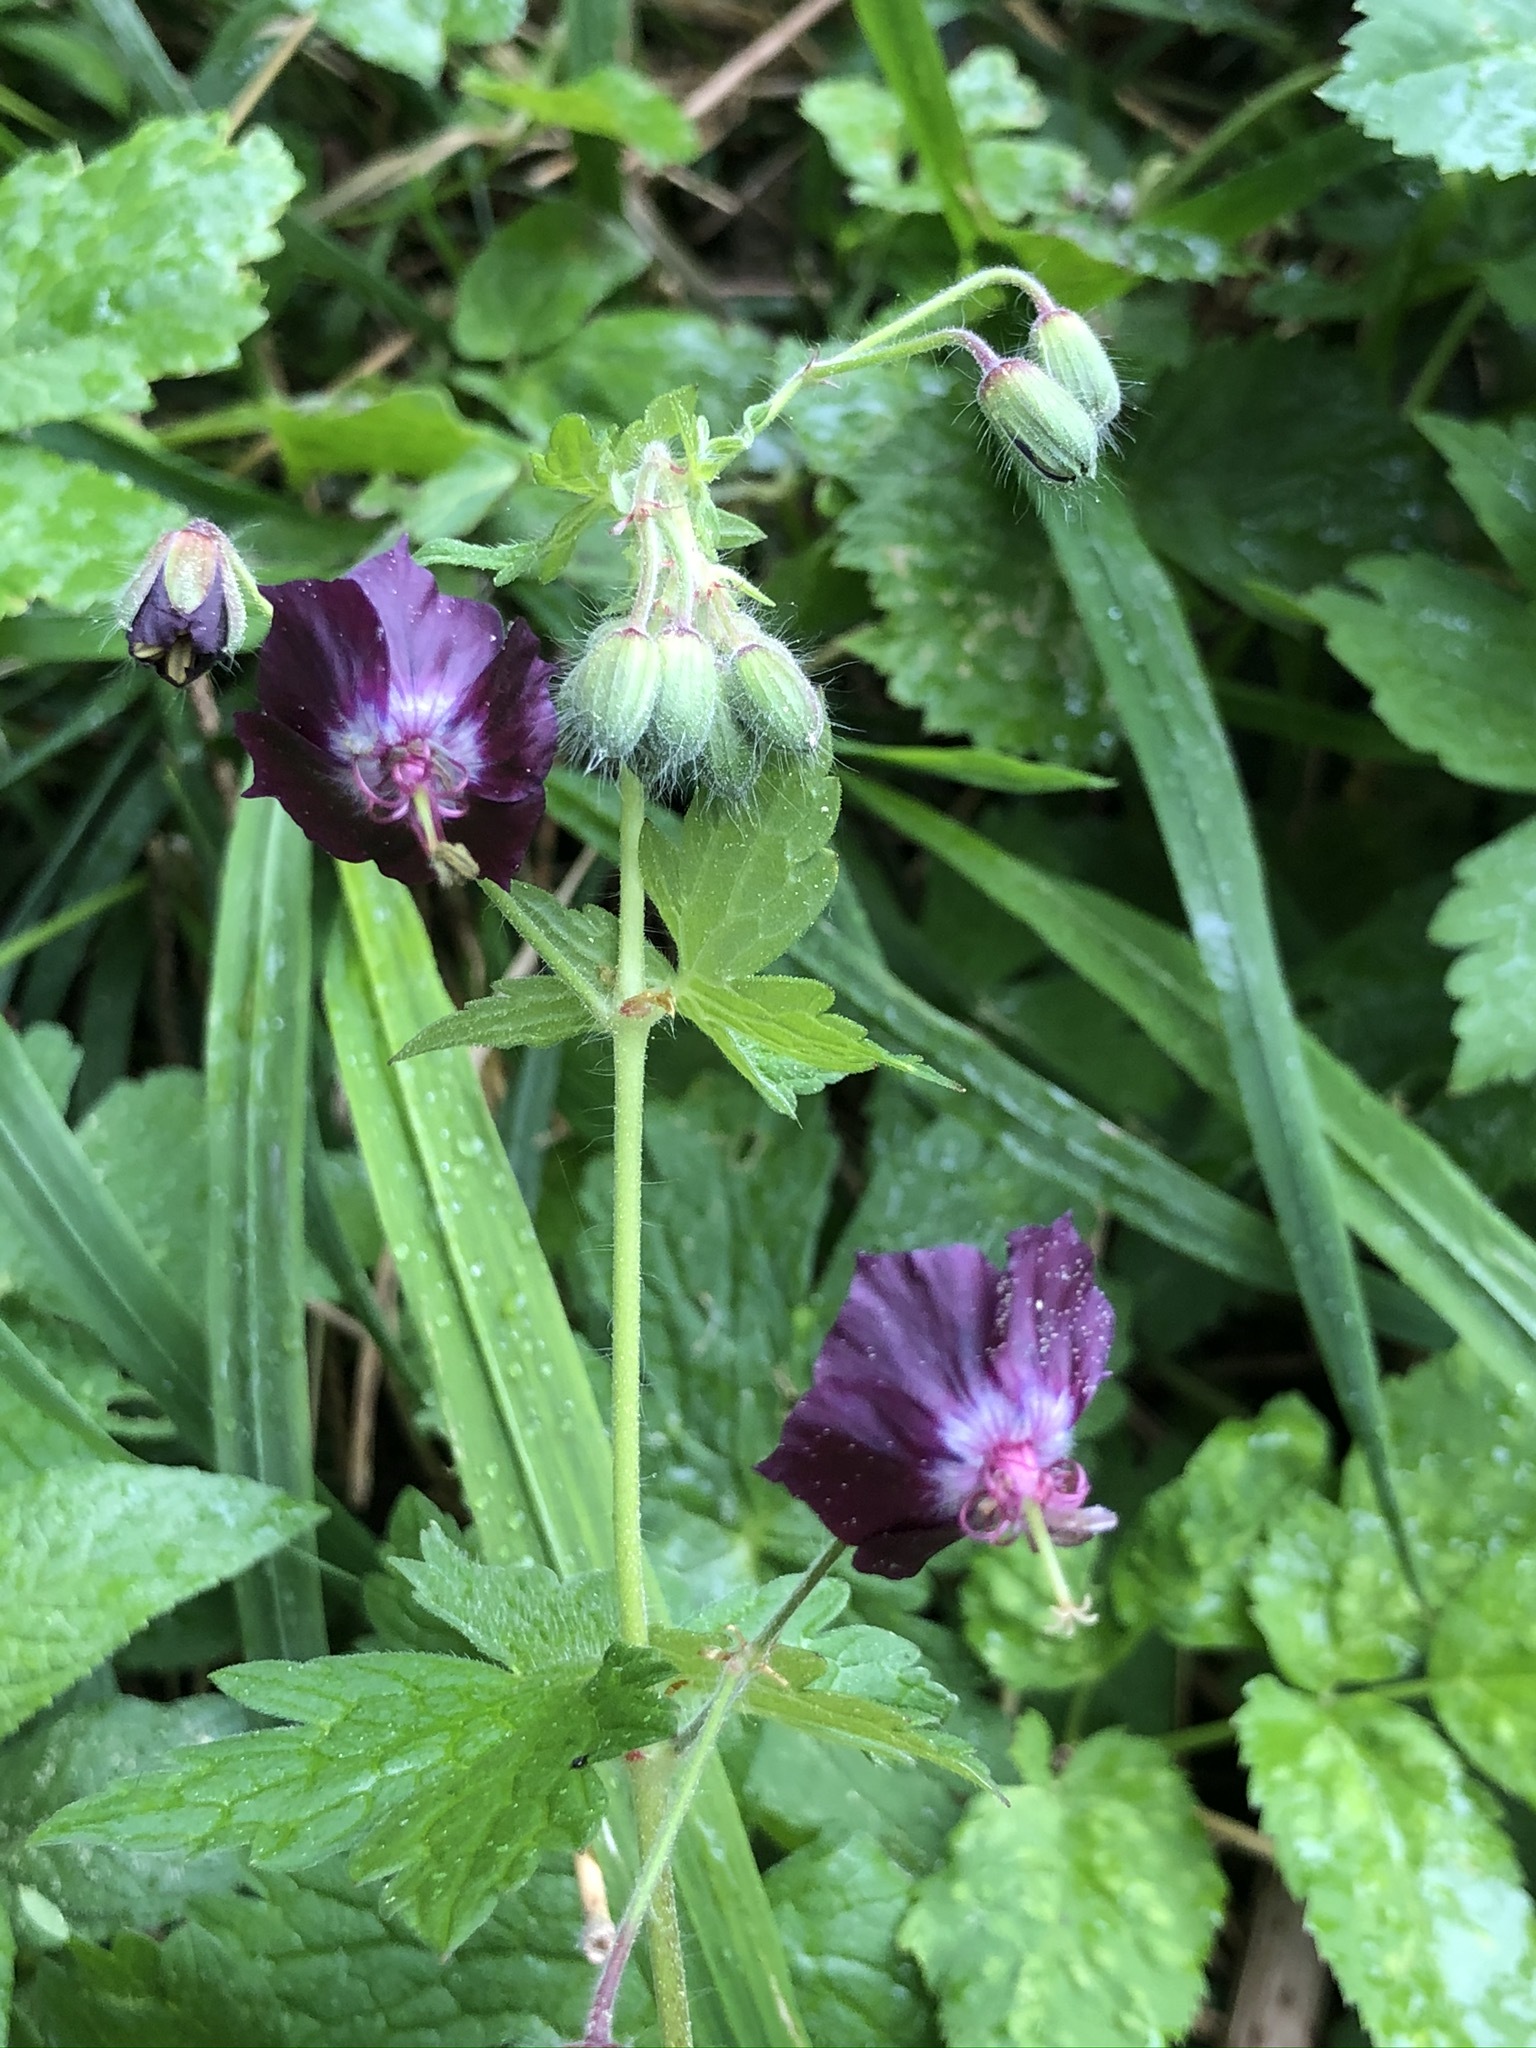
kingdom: Plantae
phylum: Tracheophyta
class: Magnoliopsida
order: Geraniales
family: Geraniaceae
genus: Geranium
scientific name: Geranium phaeum
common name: Dusky crane's-bill
